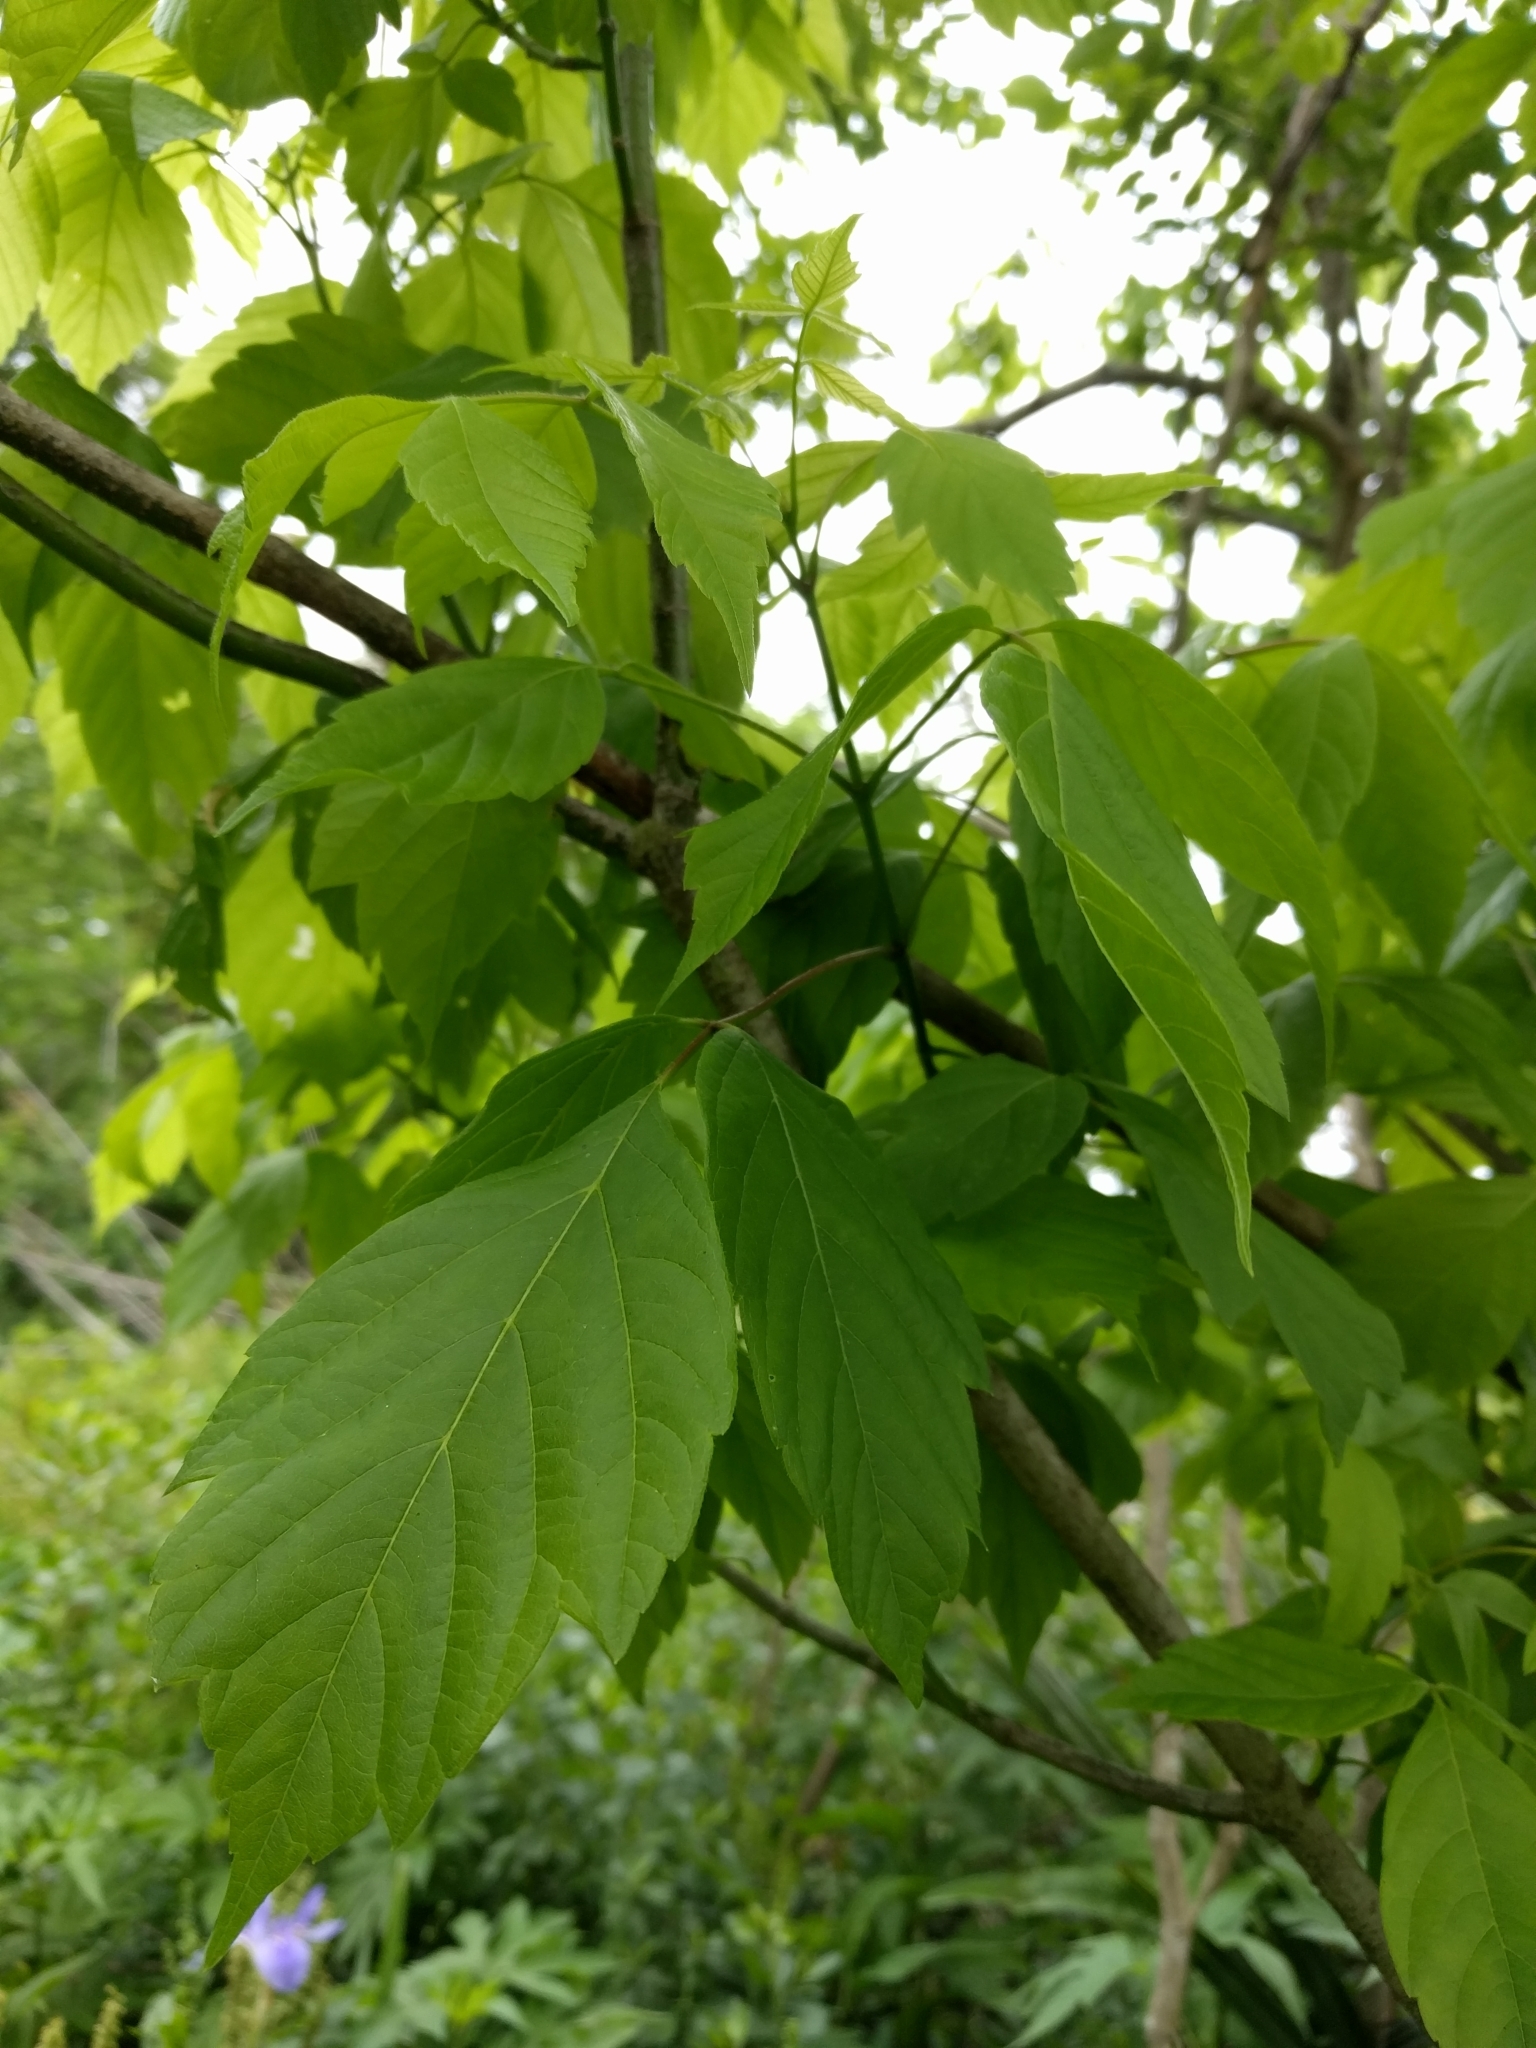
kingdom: Plantae
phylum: Tracheophyta
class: Magnoliopsida
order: Sapindales
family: Sapindaceae
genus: Acer
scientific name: Acer negundo
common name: Ashleaf maple
